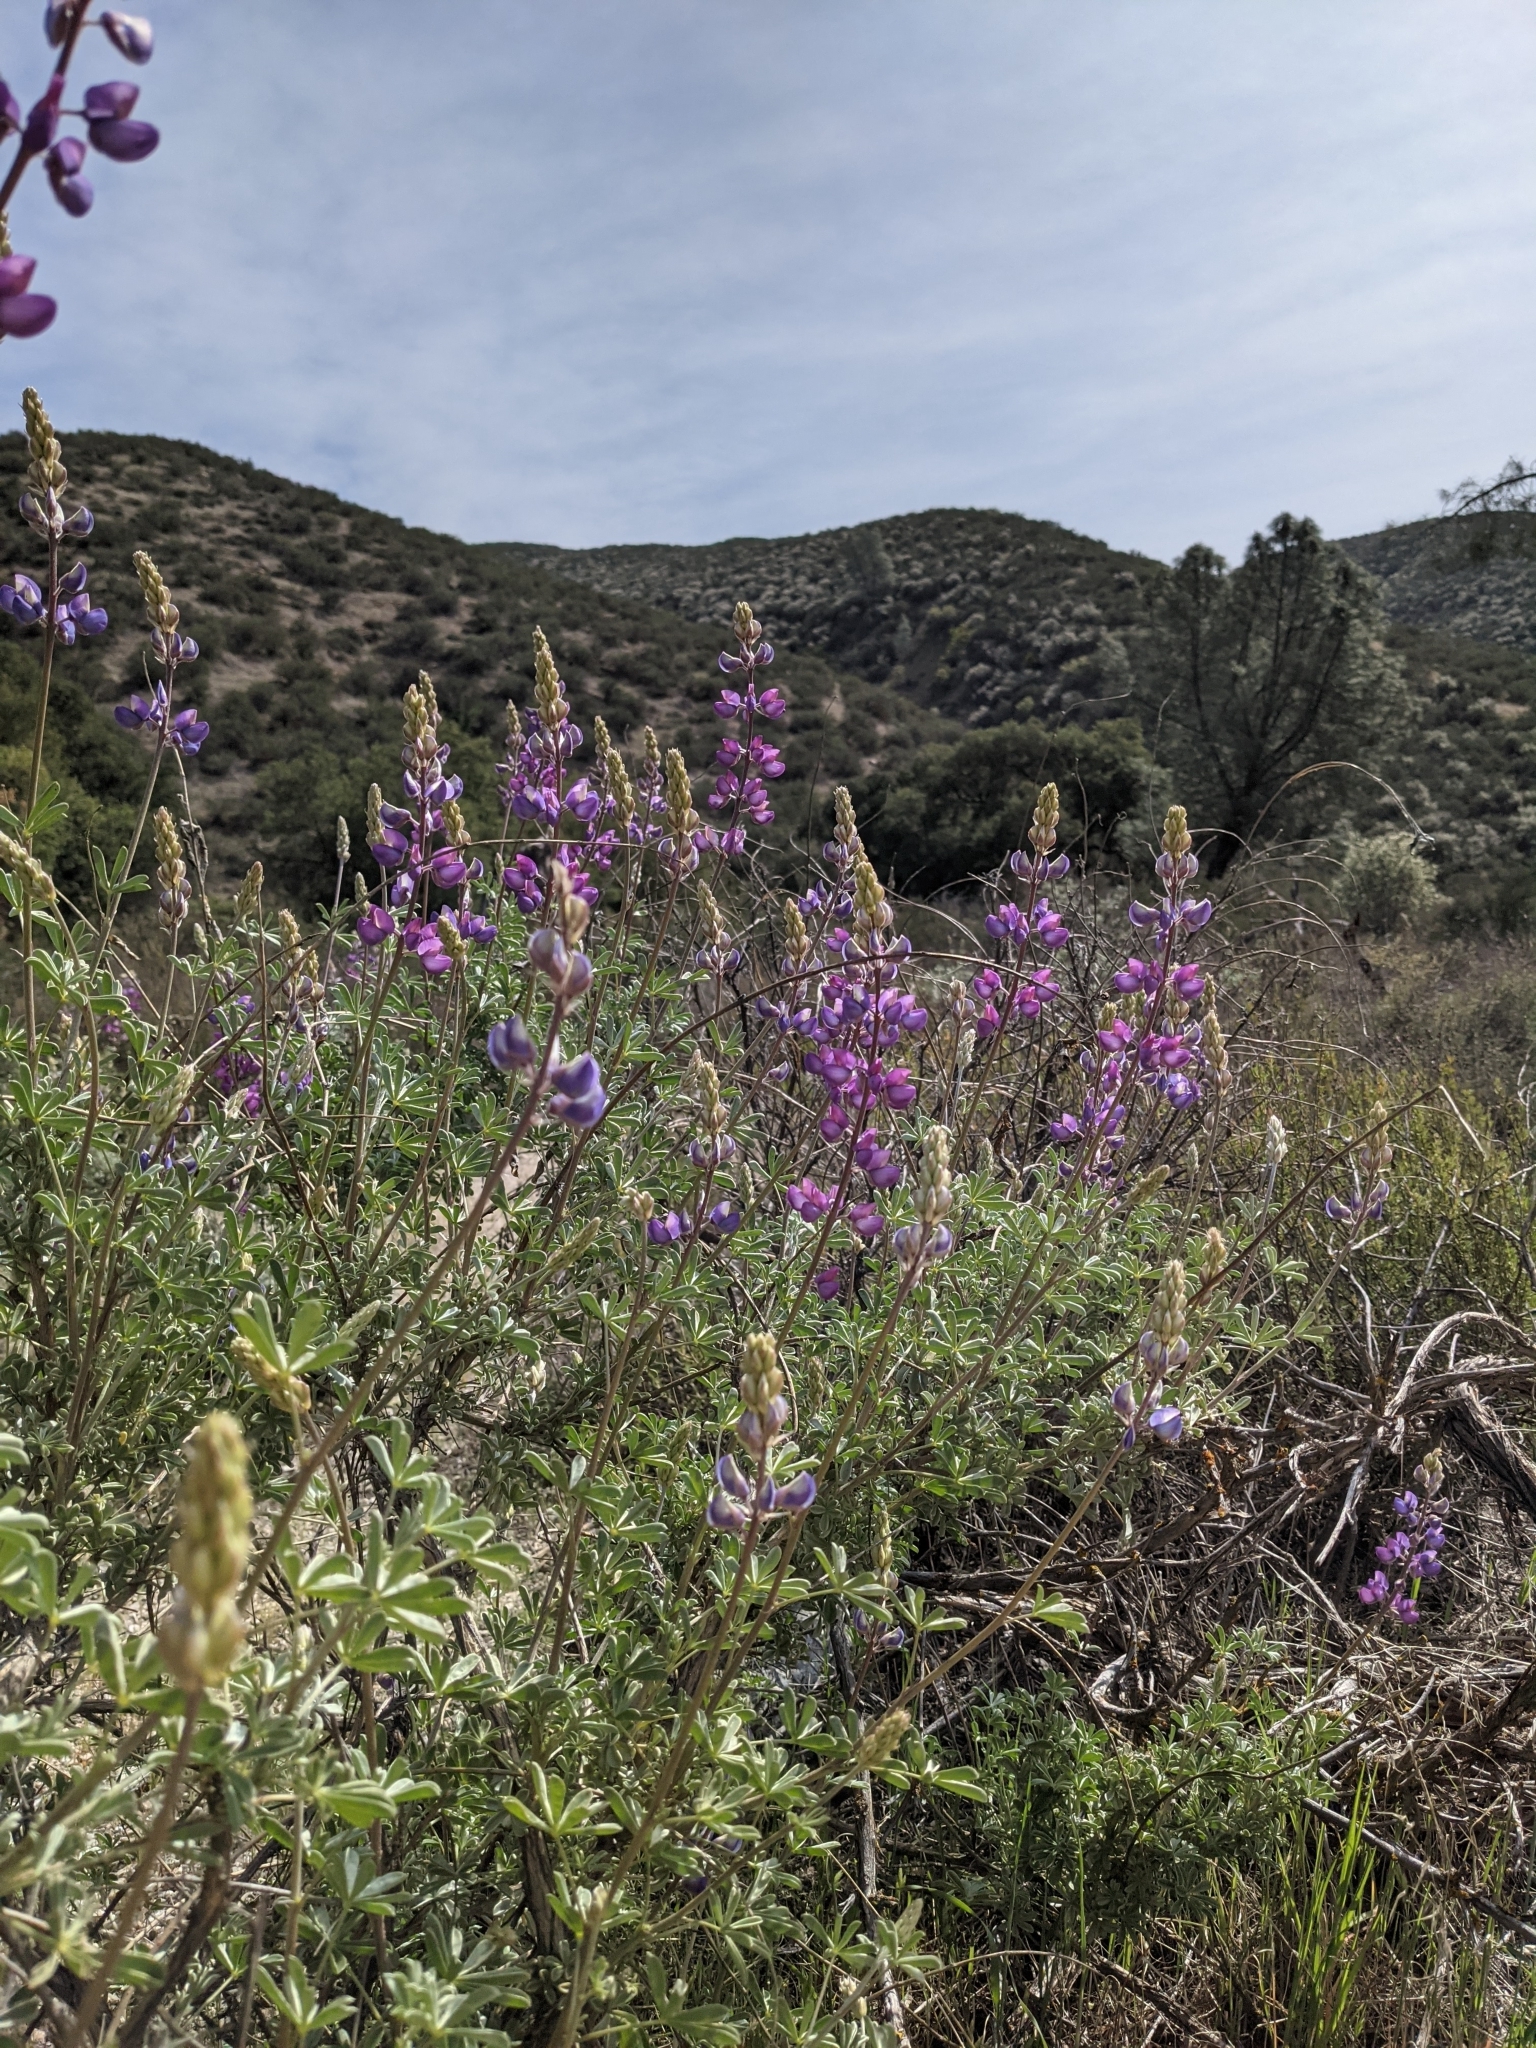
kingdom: Plantae
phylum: Tracheophyta
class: Magnoliopsida
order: Fabales
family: Fabaceae
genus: Lupinus
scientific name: Lupinus albifrons
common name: Foothill lupine
